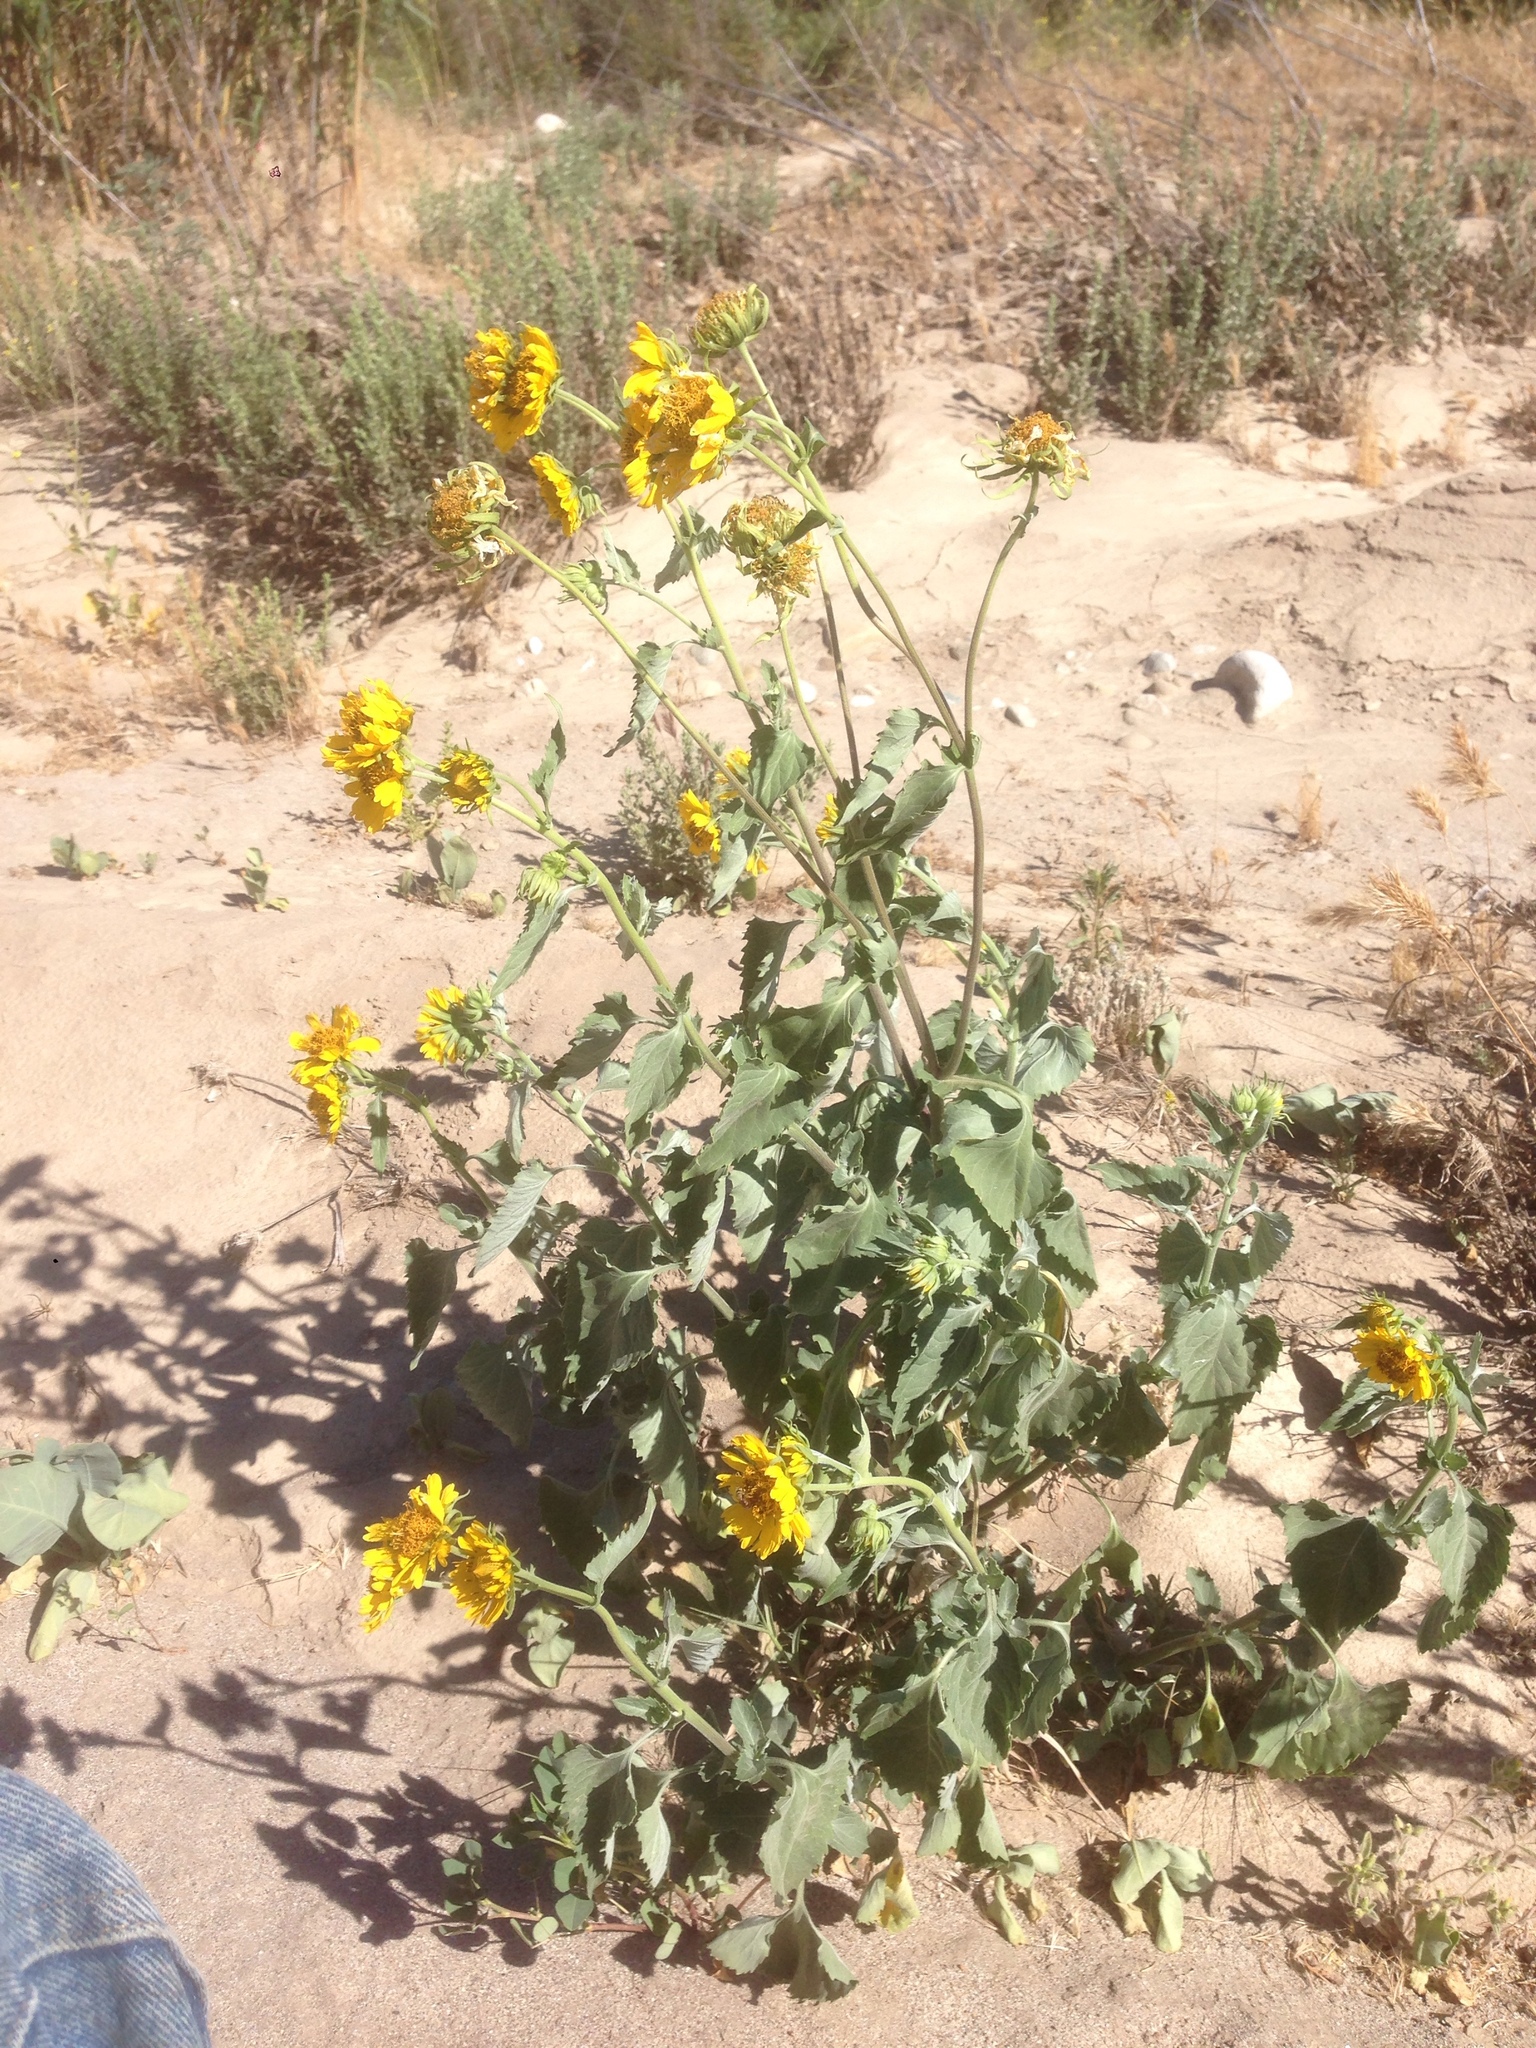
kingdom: Plantae
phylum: Tracheophyta
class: Magnoliopsida
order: Asterales
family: Asteraceae
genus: Verbesina
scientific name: Verbesina encelioides
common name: Golden crownbeard
